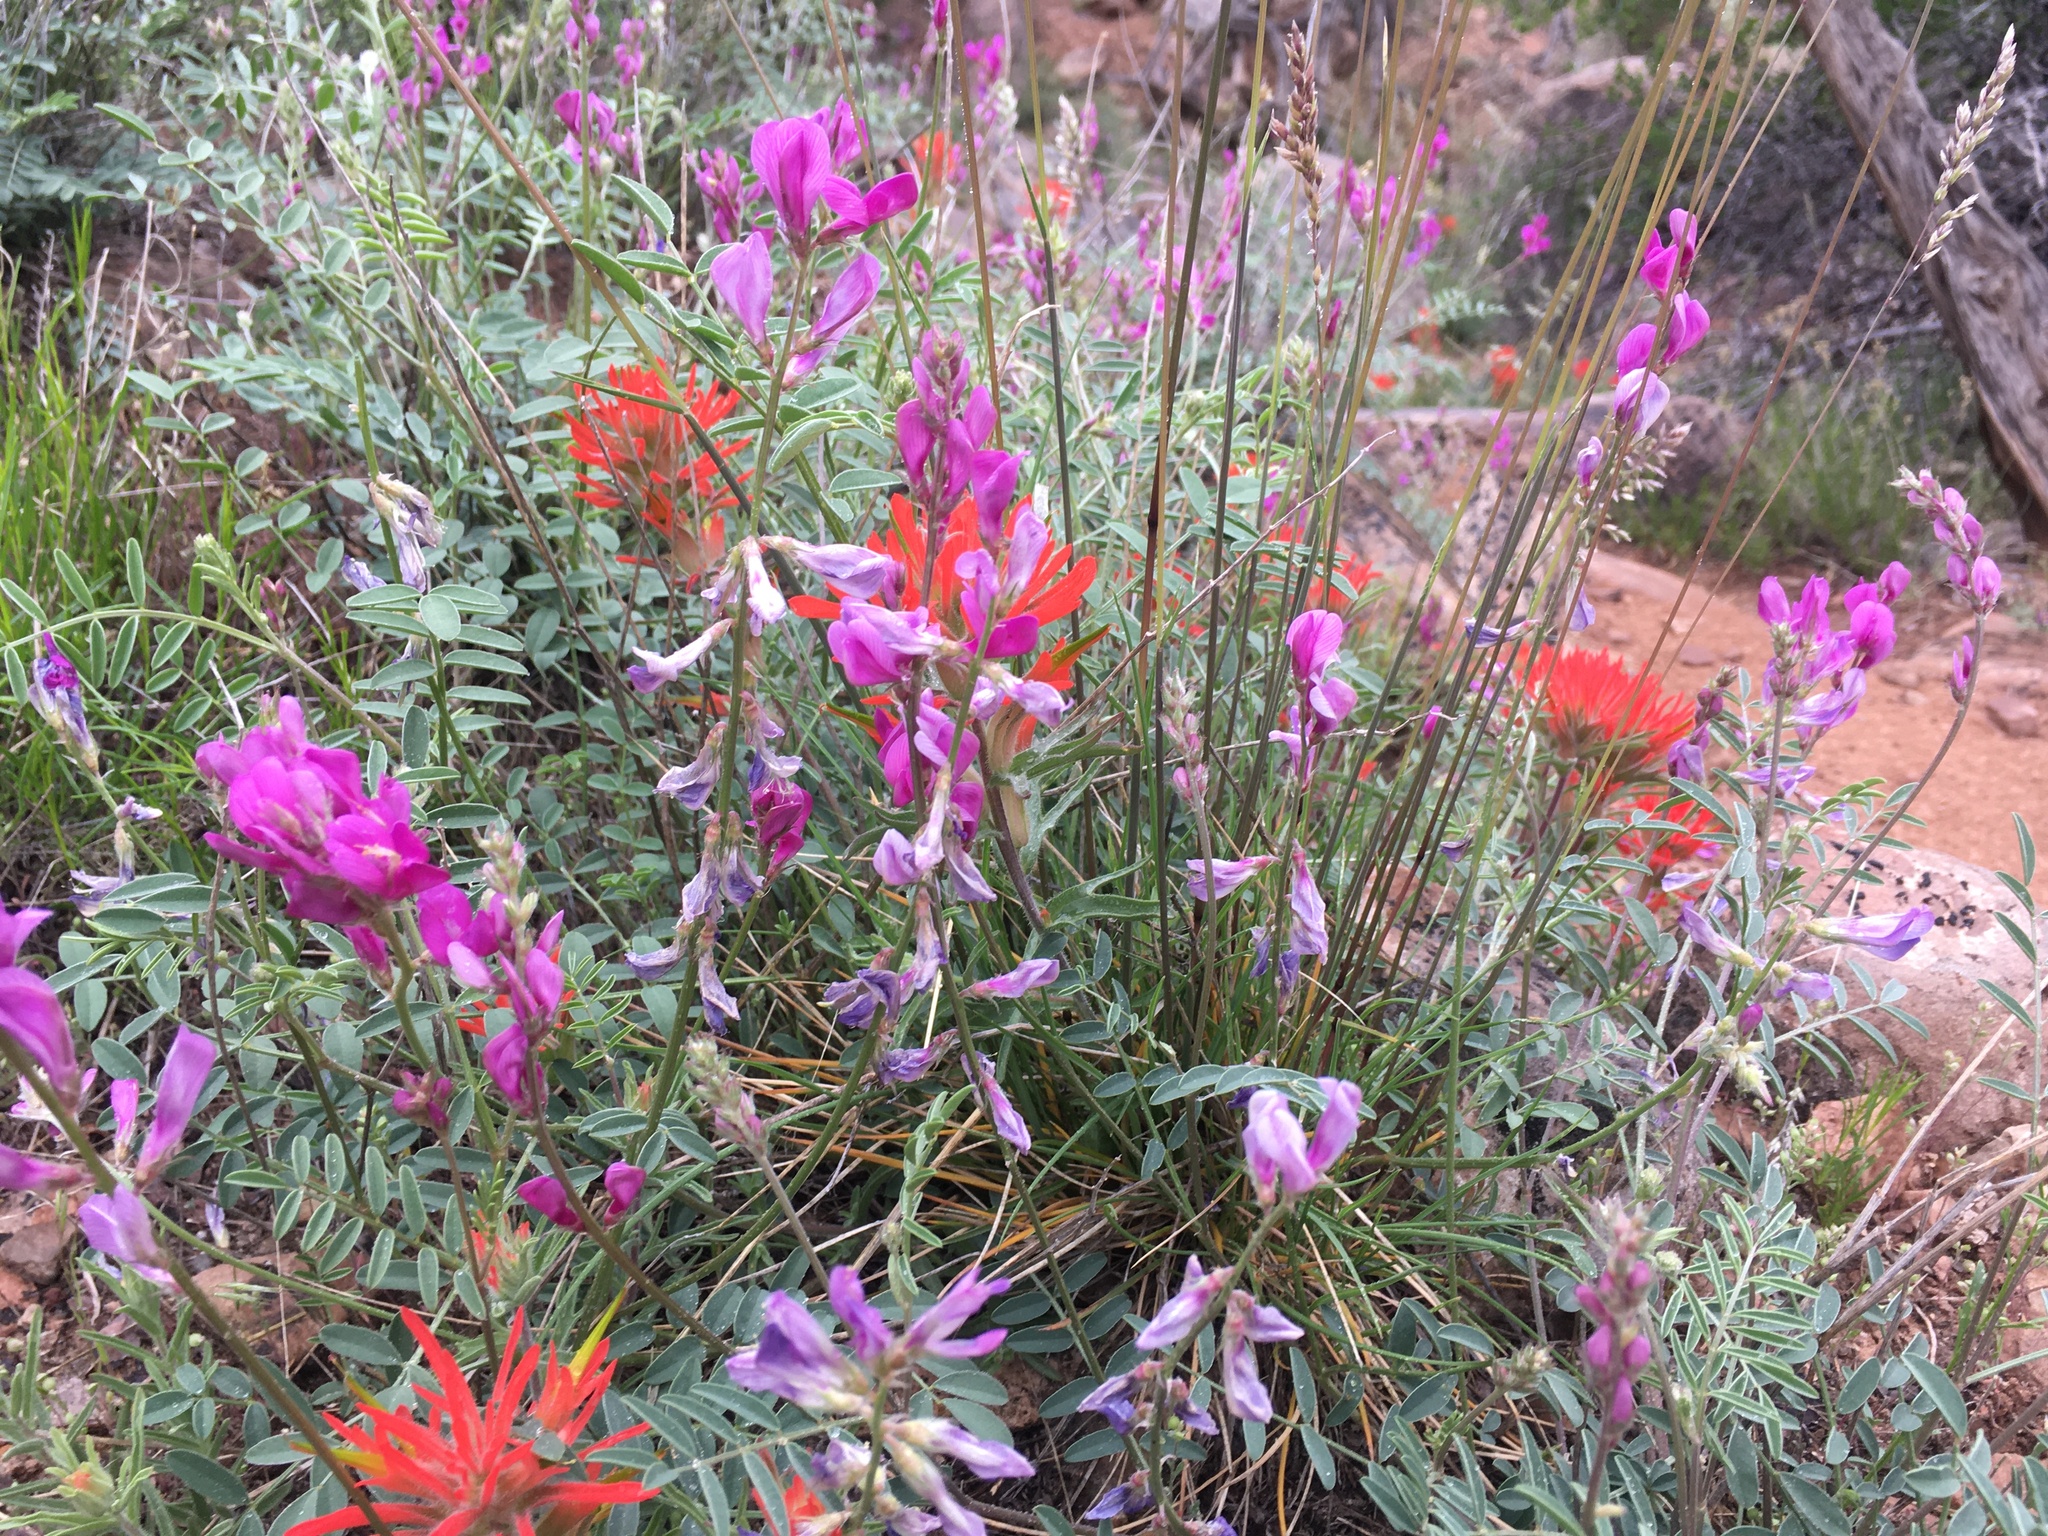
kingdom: Plantae
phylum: Tracheophyta
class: Magnoliopsida
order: Fabales
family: Fabaceae
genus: Hedysarum
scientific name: Hedysarum boreale
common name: Northern sweet-vetch
